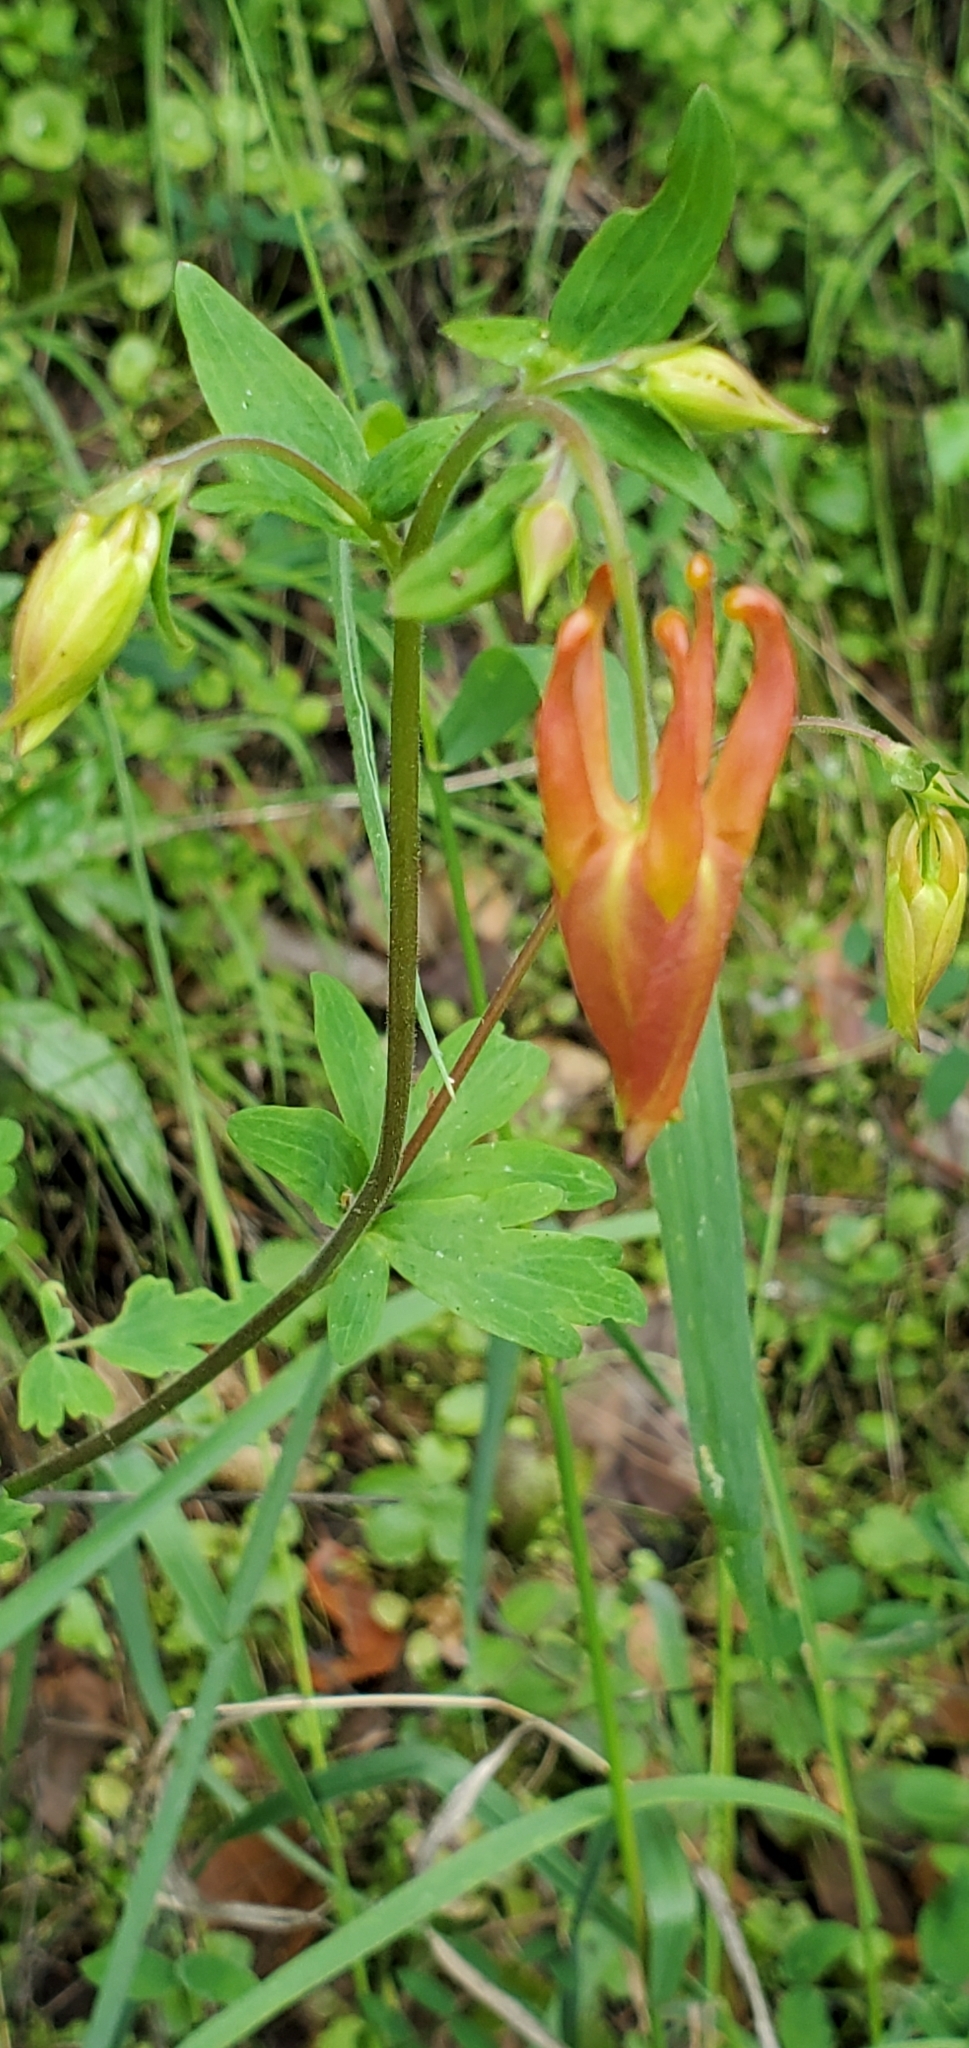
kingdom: Plantae
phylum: Tracheophyta
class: Magnoliopsida
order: Ranunculales
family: Ranunculaceae
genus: Aquilegia
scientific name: Aquilegia formosa
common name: Sitka columbine
